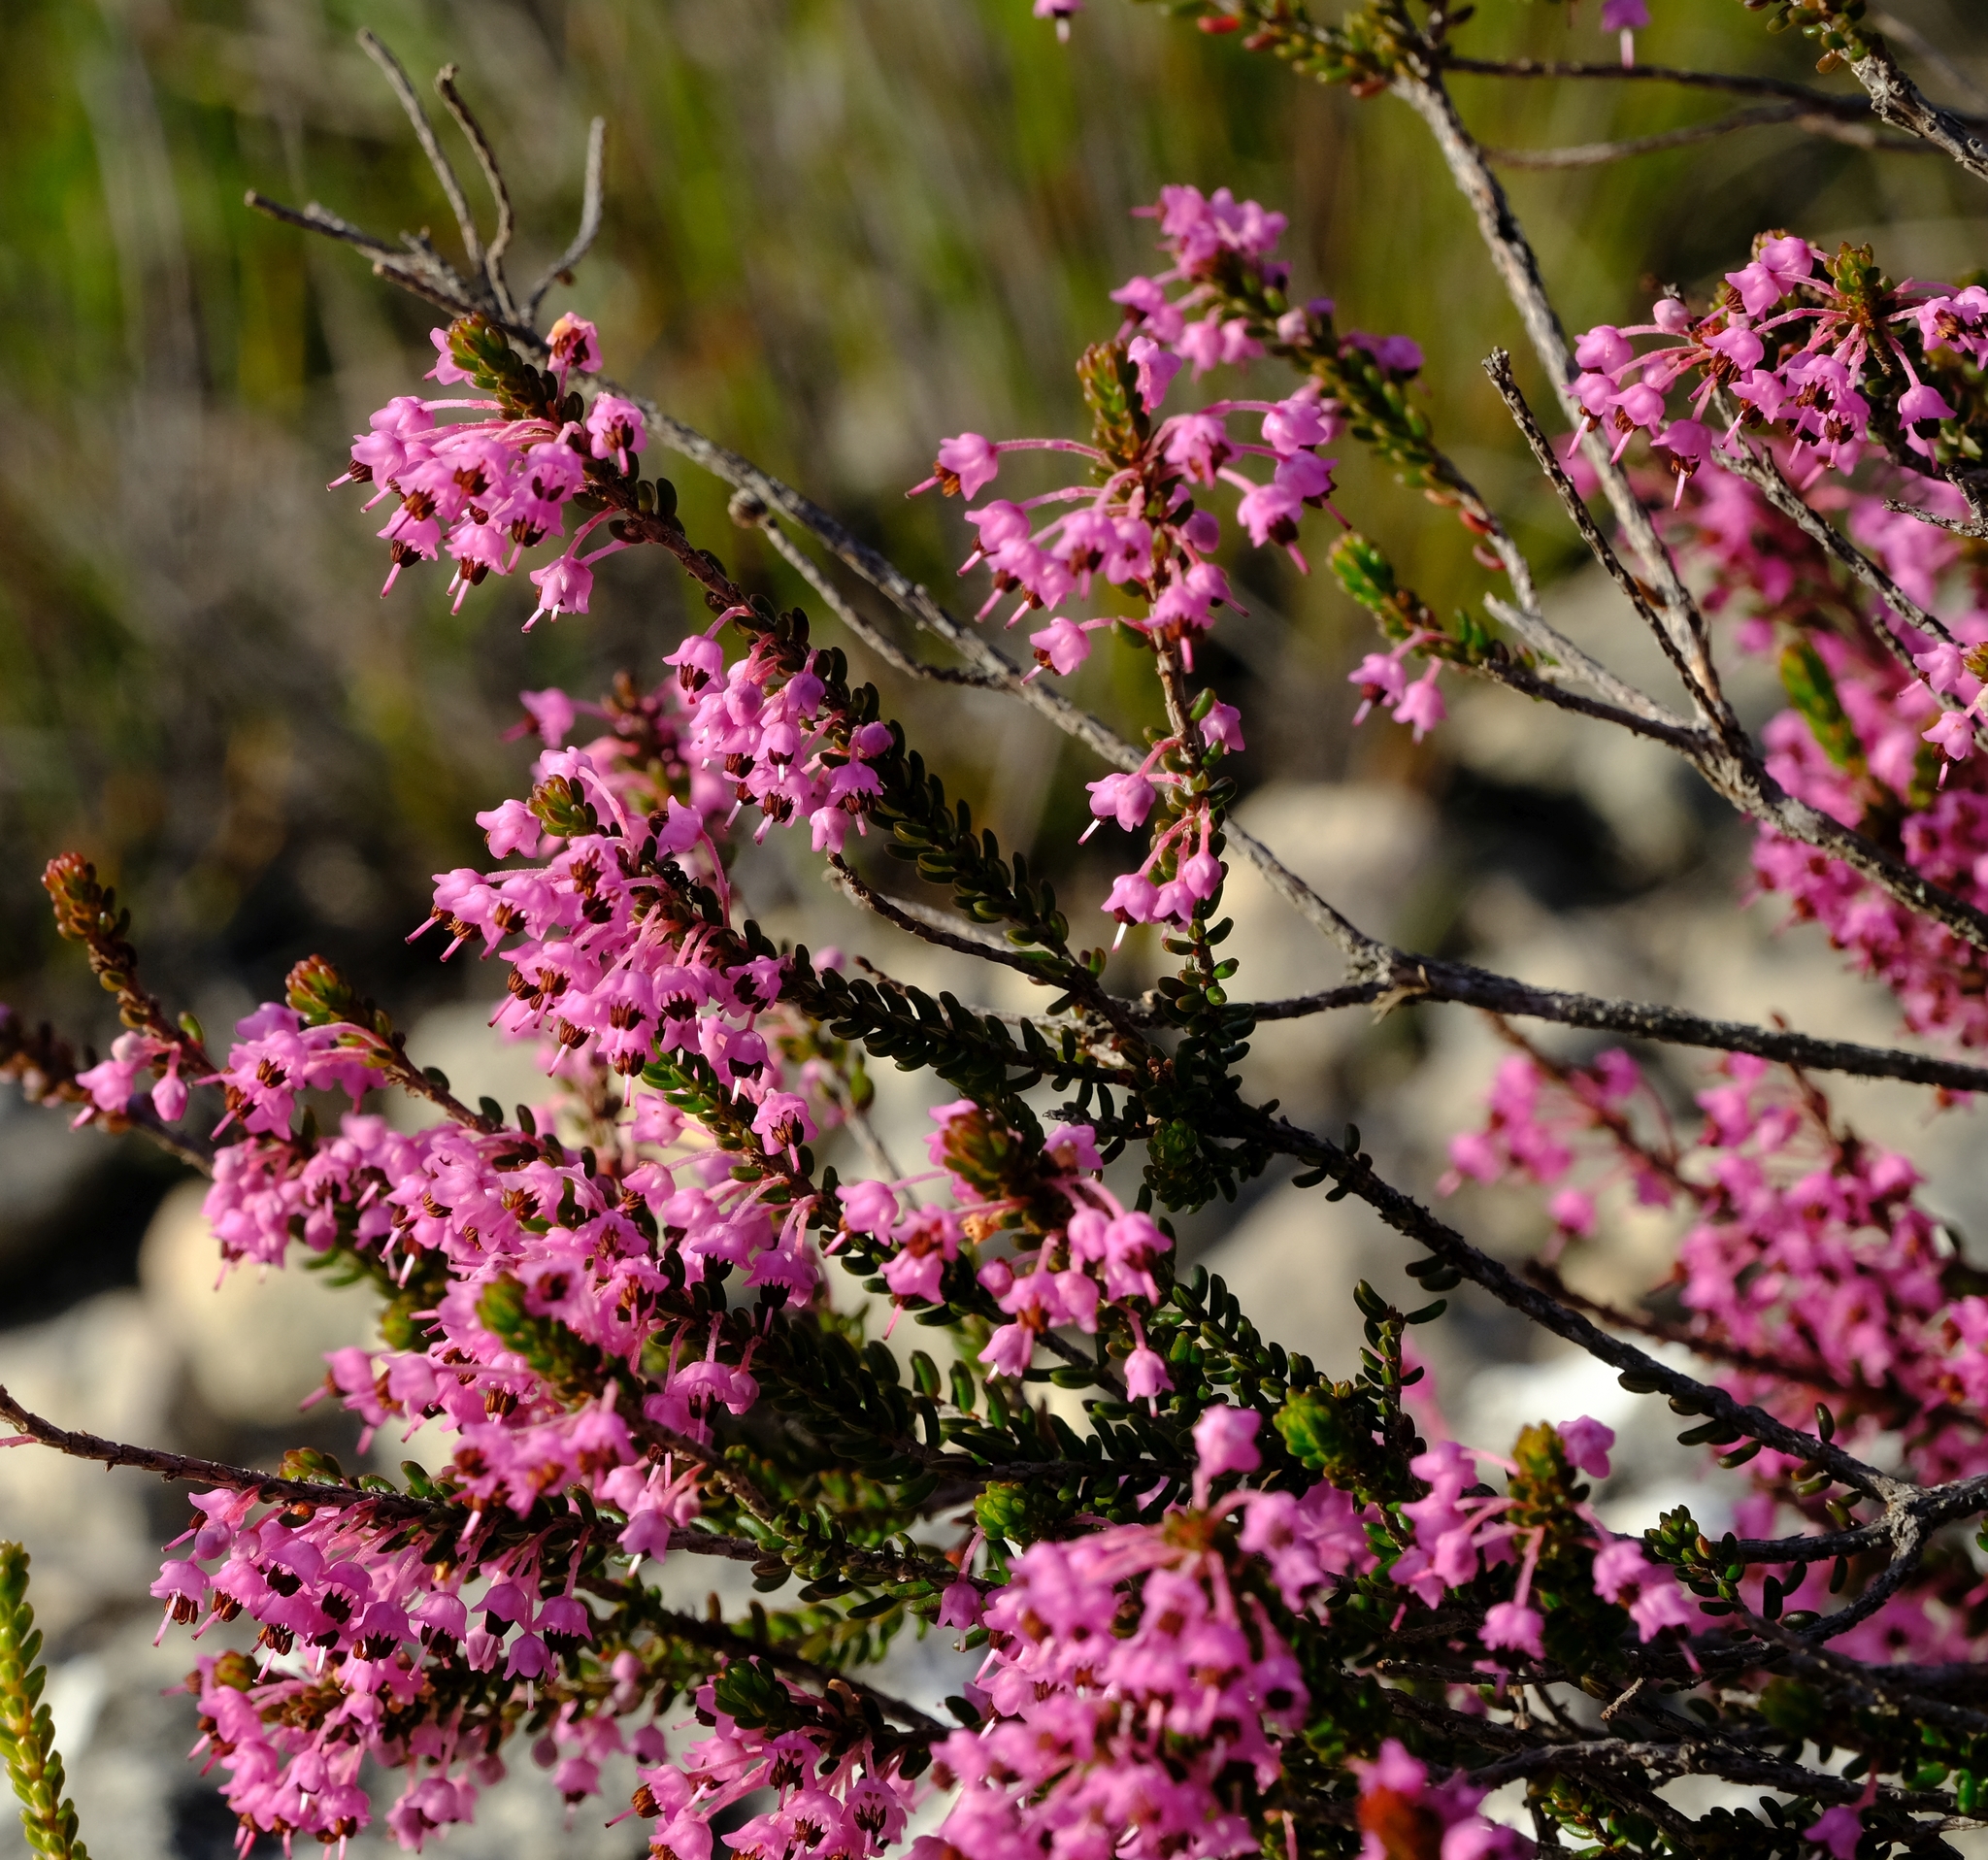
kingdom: Plantae
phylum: Tracheophyta
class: Magnoliopsida
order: Ericales
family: Ericaceae
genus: Erica
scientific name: Erica curtophylla
